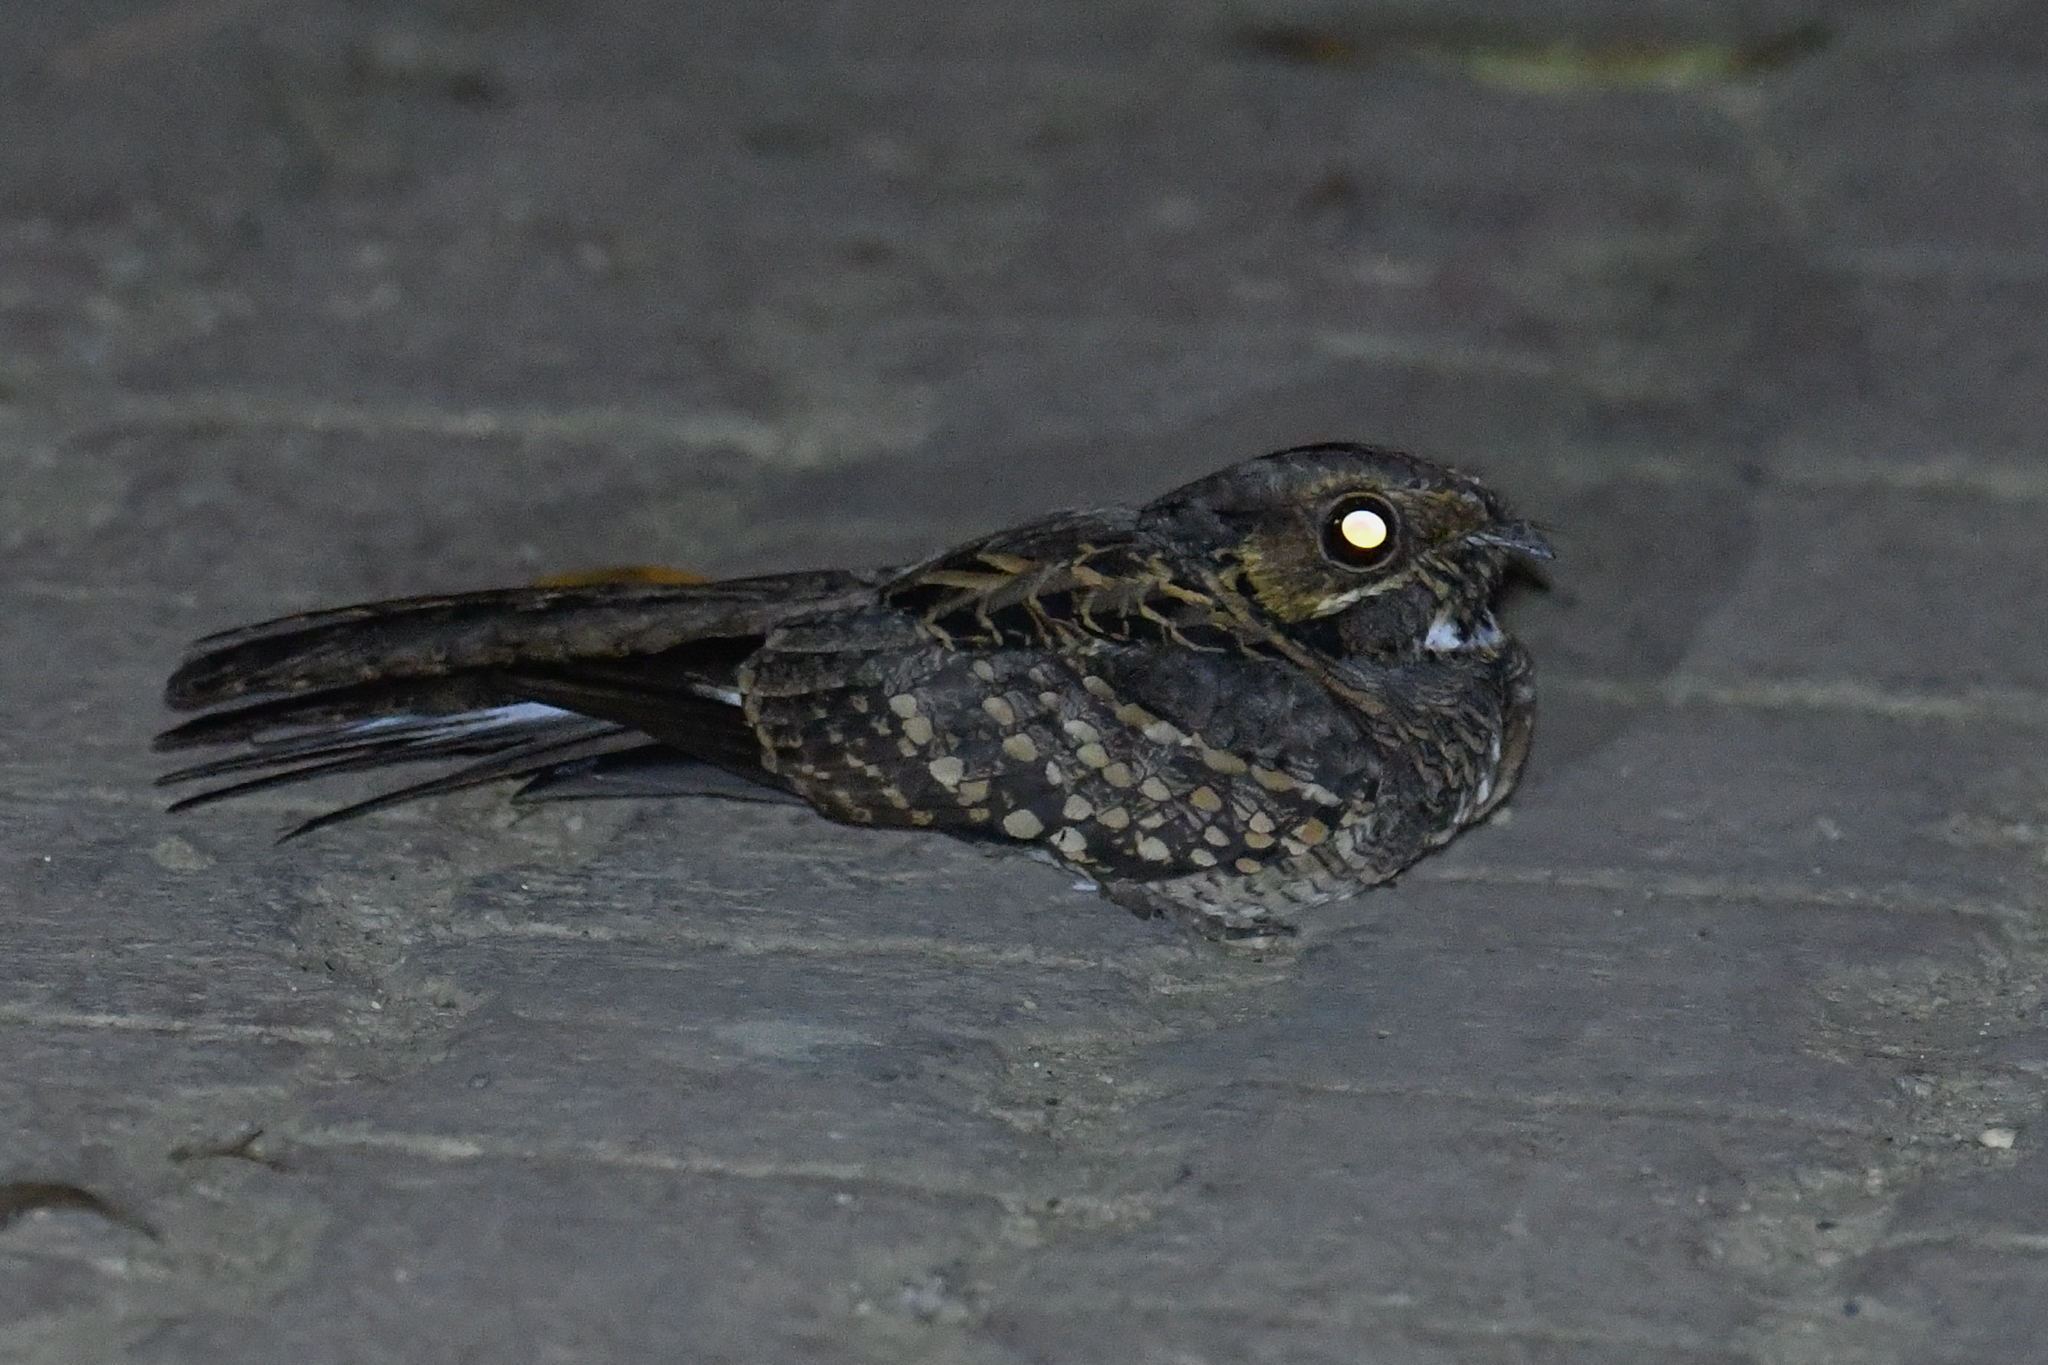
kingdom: Animalia
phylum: Chordata
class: Aves
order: Caprimulgiformes
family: Caprimulgidae
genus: Nyctidromus
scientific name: Nyctidromus albicollis
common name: Pauraque
